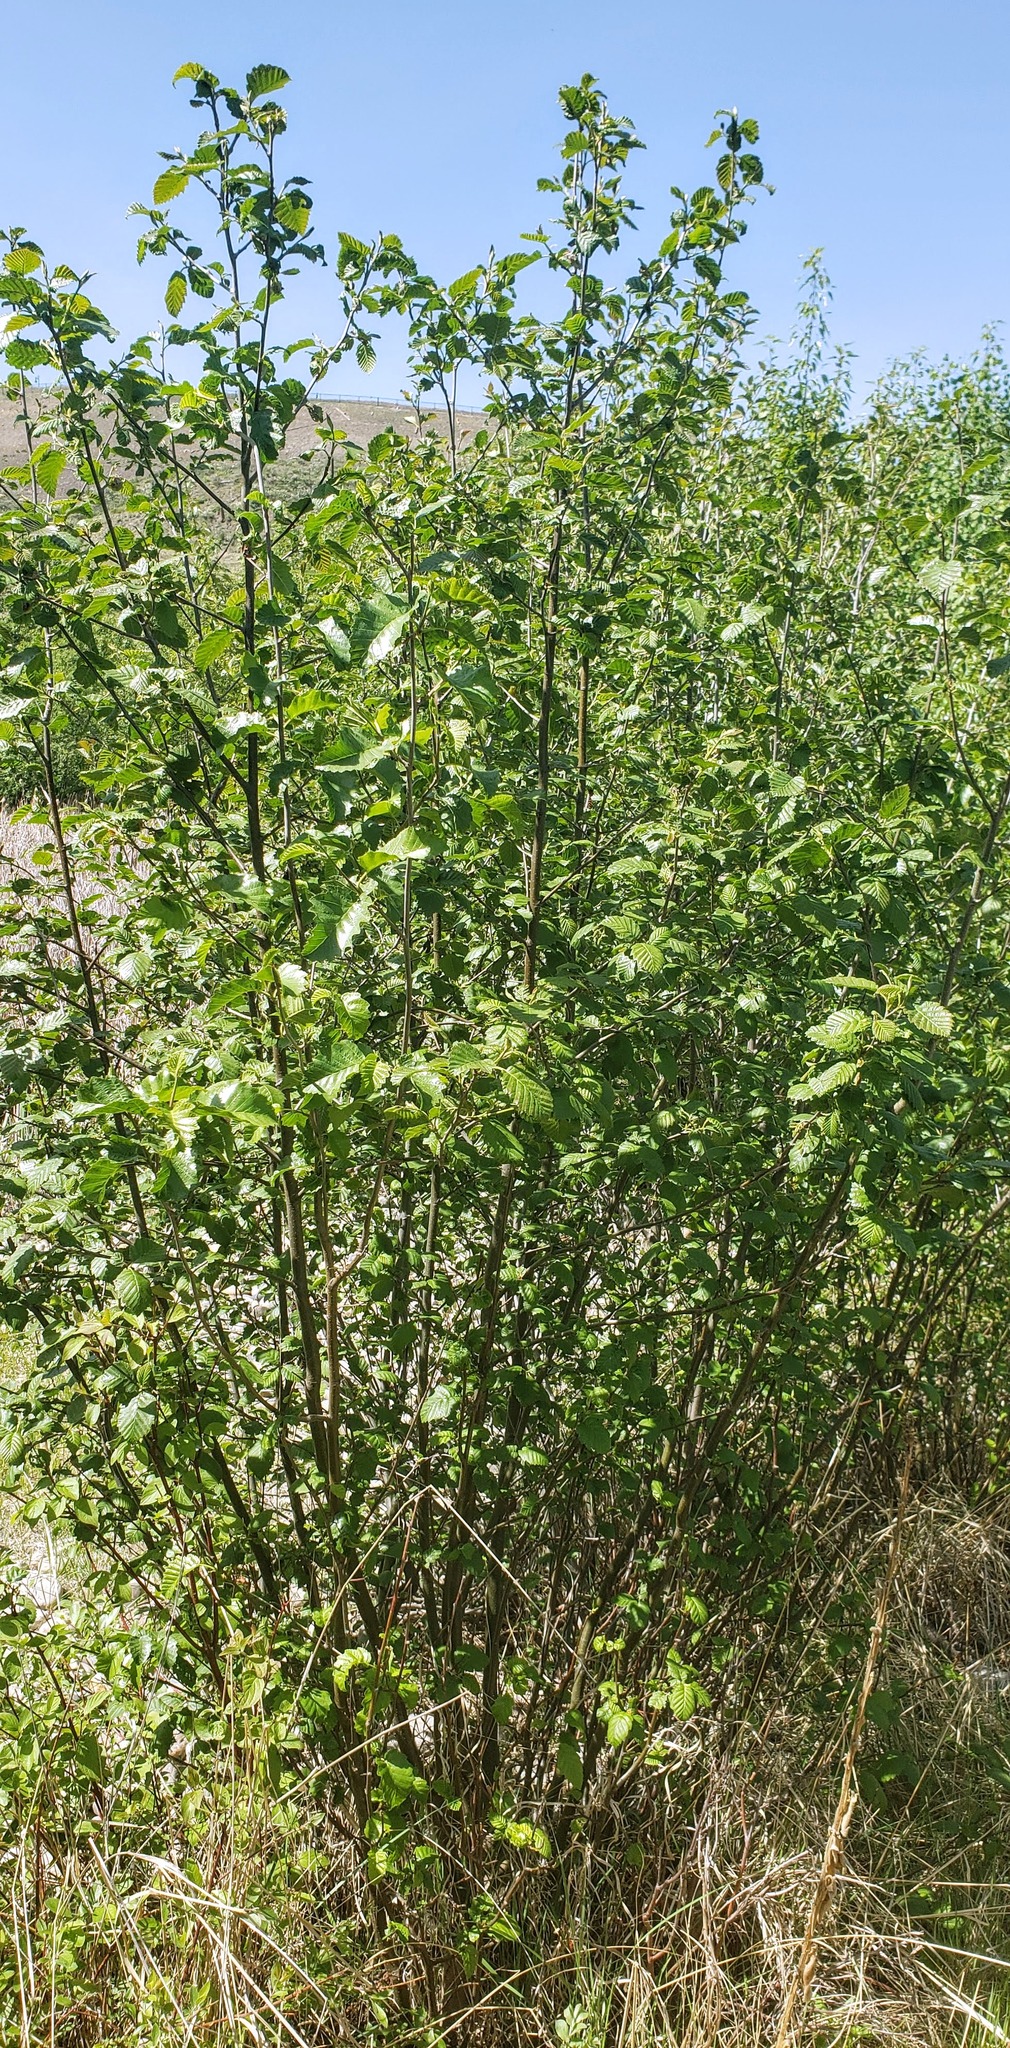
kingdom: Plantae
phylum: Tracheophyta
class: Magnoliopsida
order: Fagales
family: Betulaceae
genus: Alnus
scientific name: Alnus incana
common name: Grey alder
